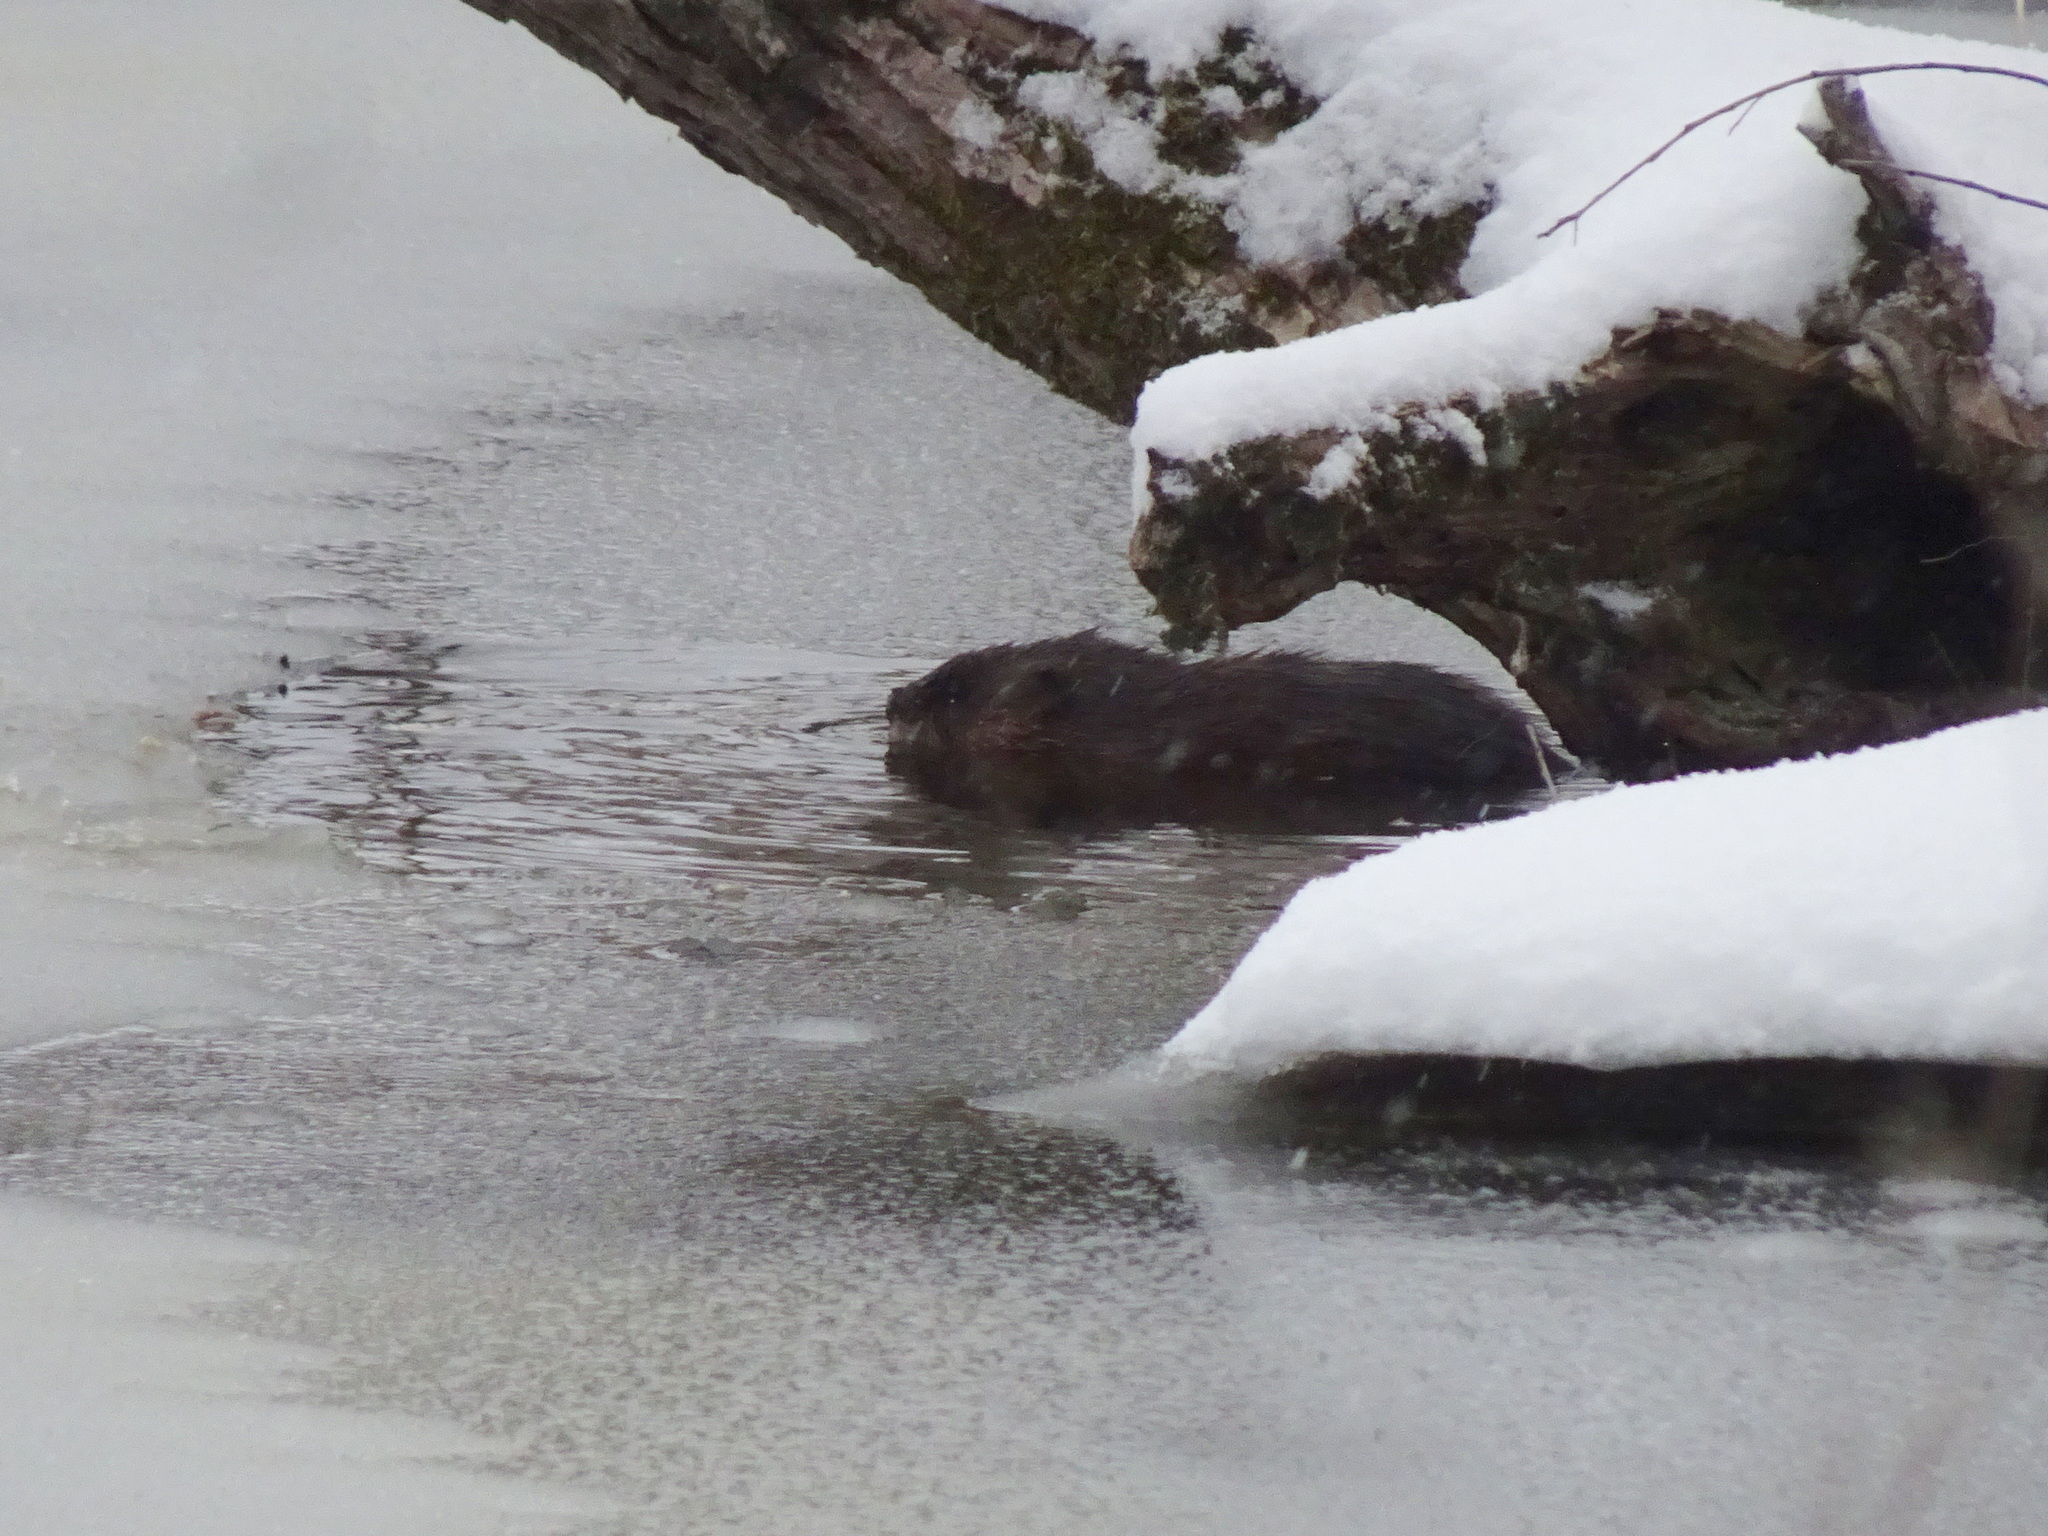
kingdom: Animalia
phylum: Chordata
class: Mammalia
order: Rodentia
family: Cricetidae
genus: Ondatra
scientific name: Ondatra zibethicus
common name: Muskrat
